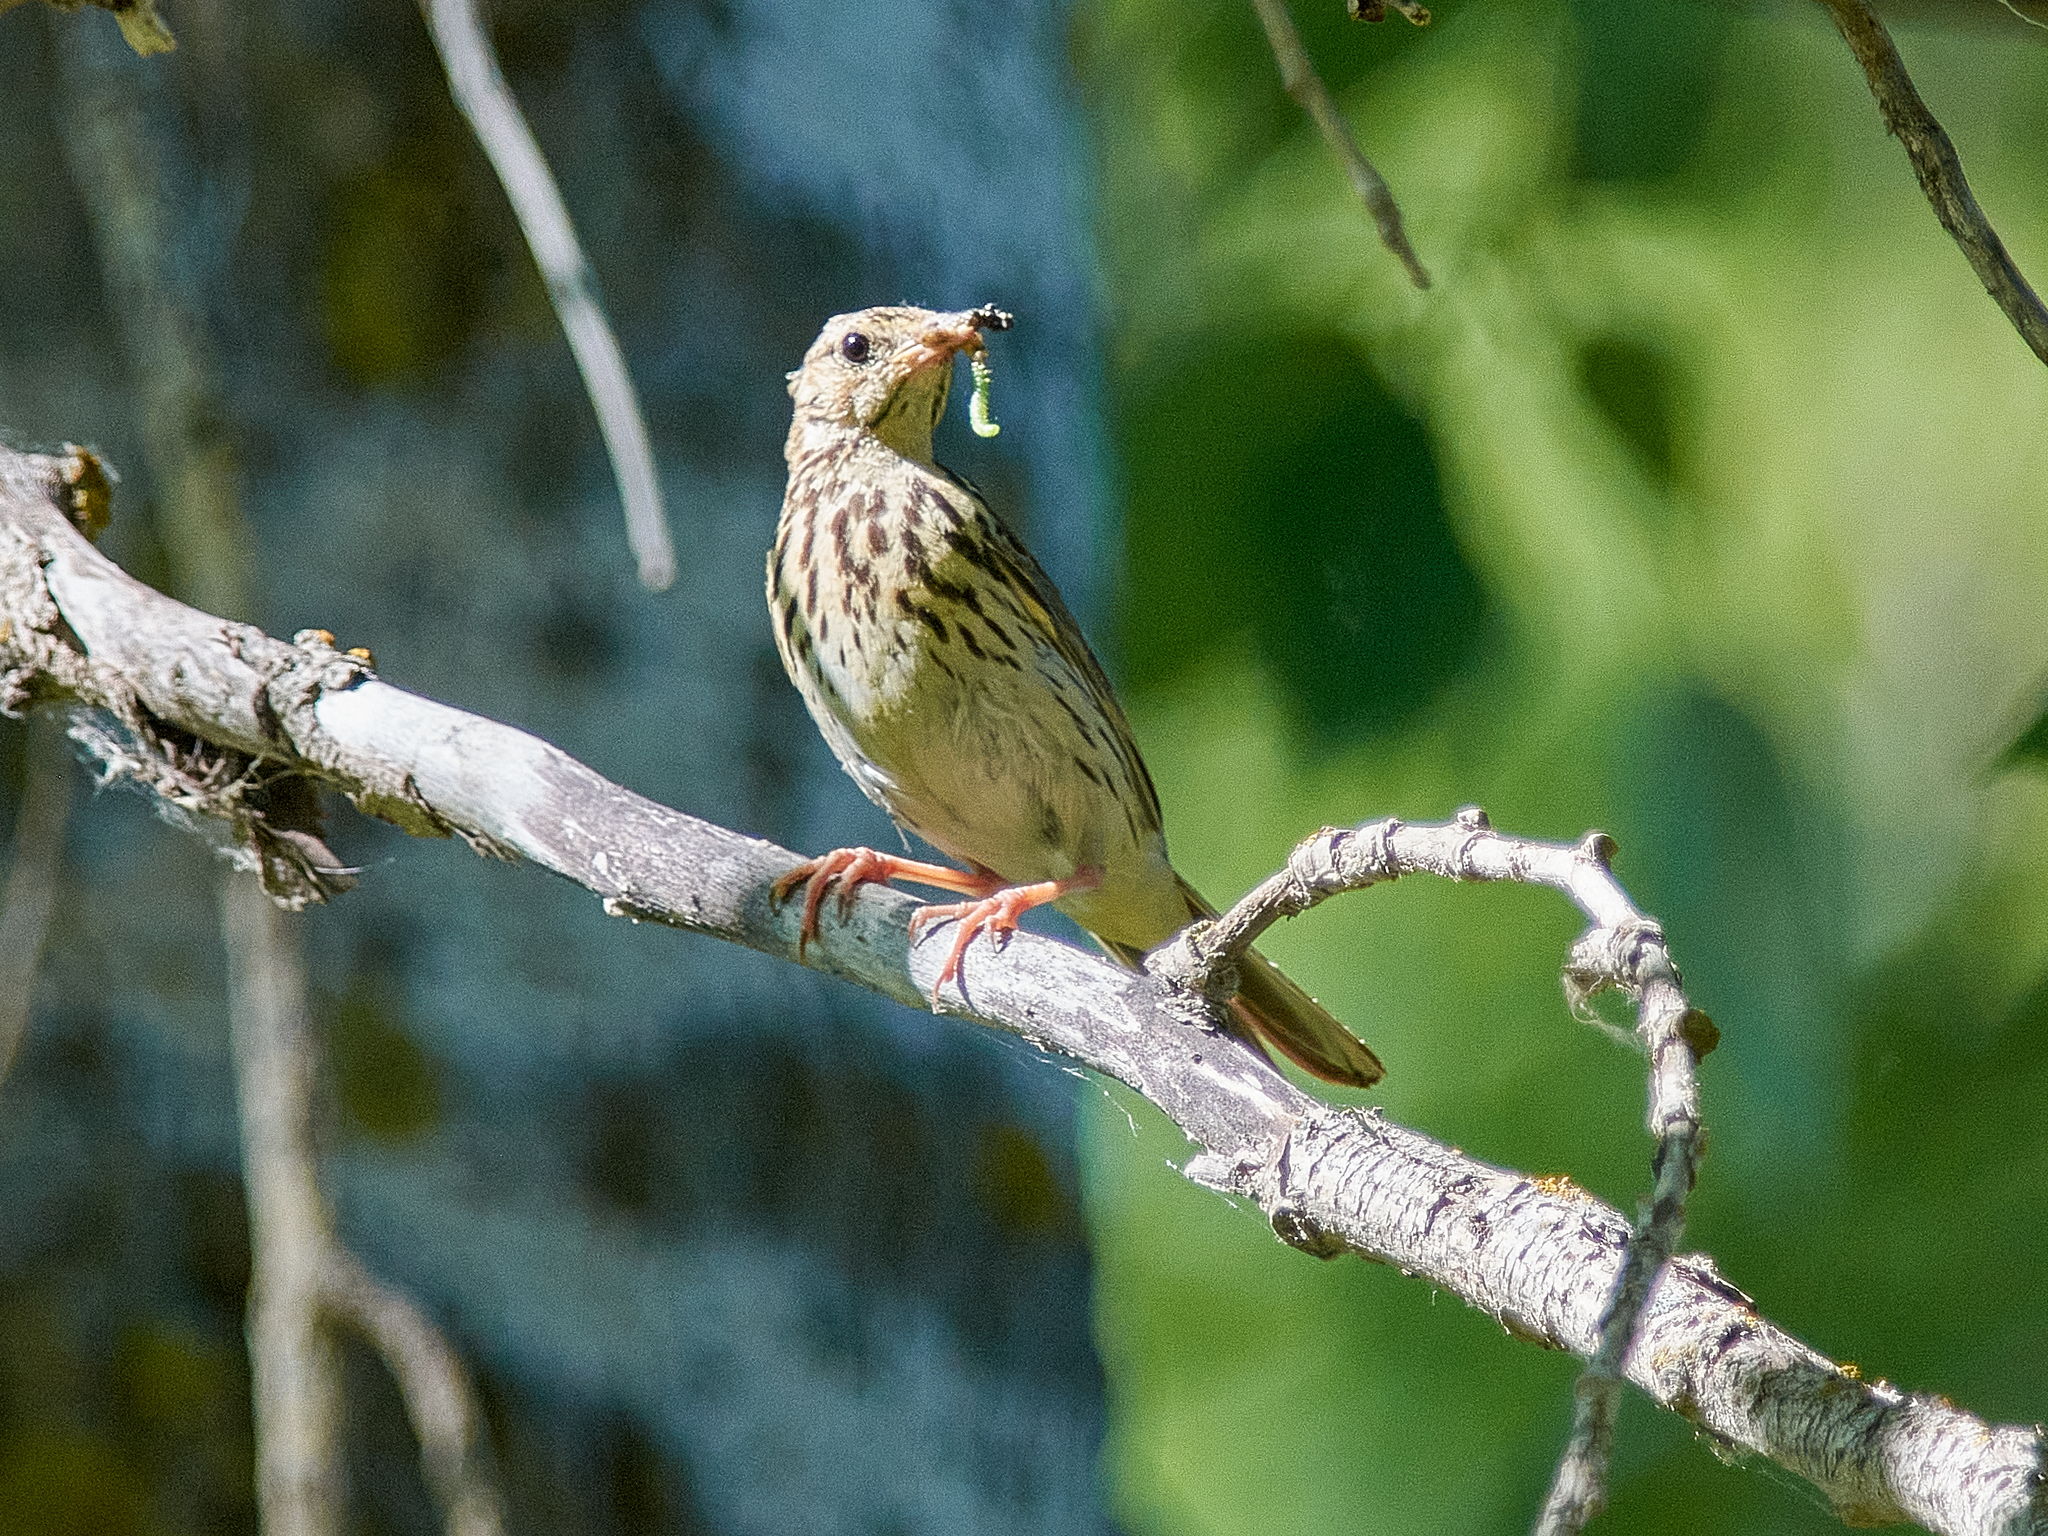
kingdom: Animalia
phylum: Chordata
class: Aves
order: Passeriformes
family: Motacillidae
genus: Anthus
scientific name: Anthus trivialis
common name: Tree pipit
